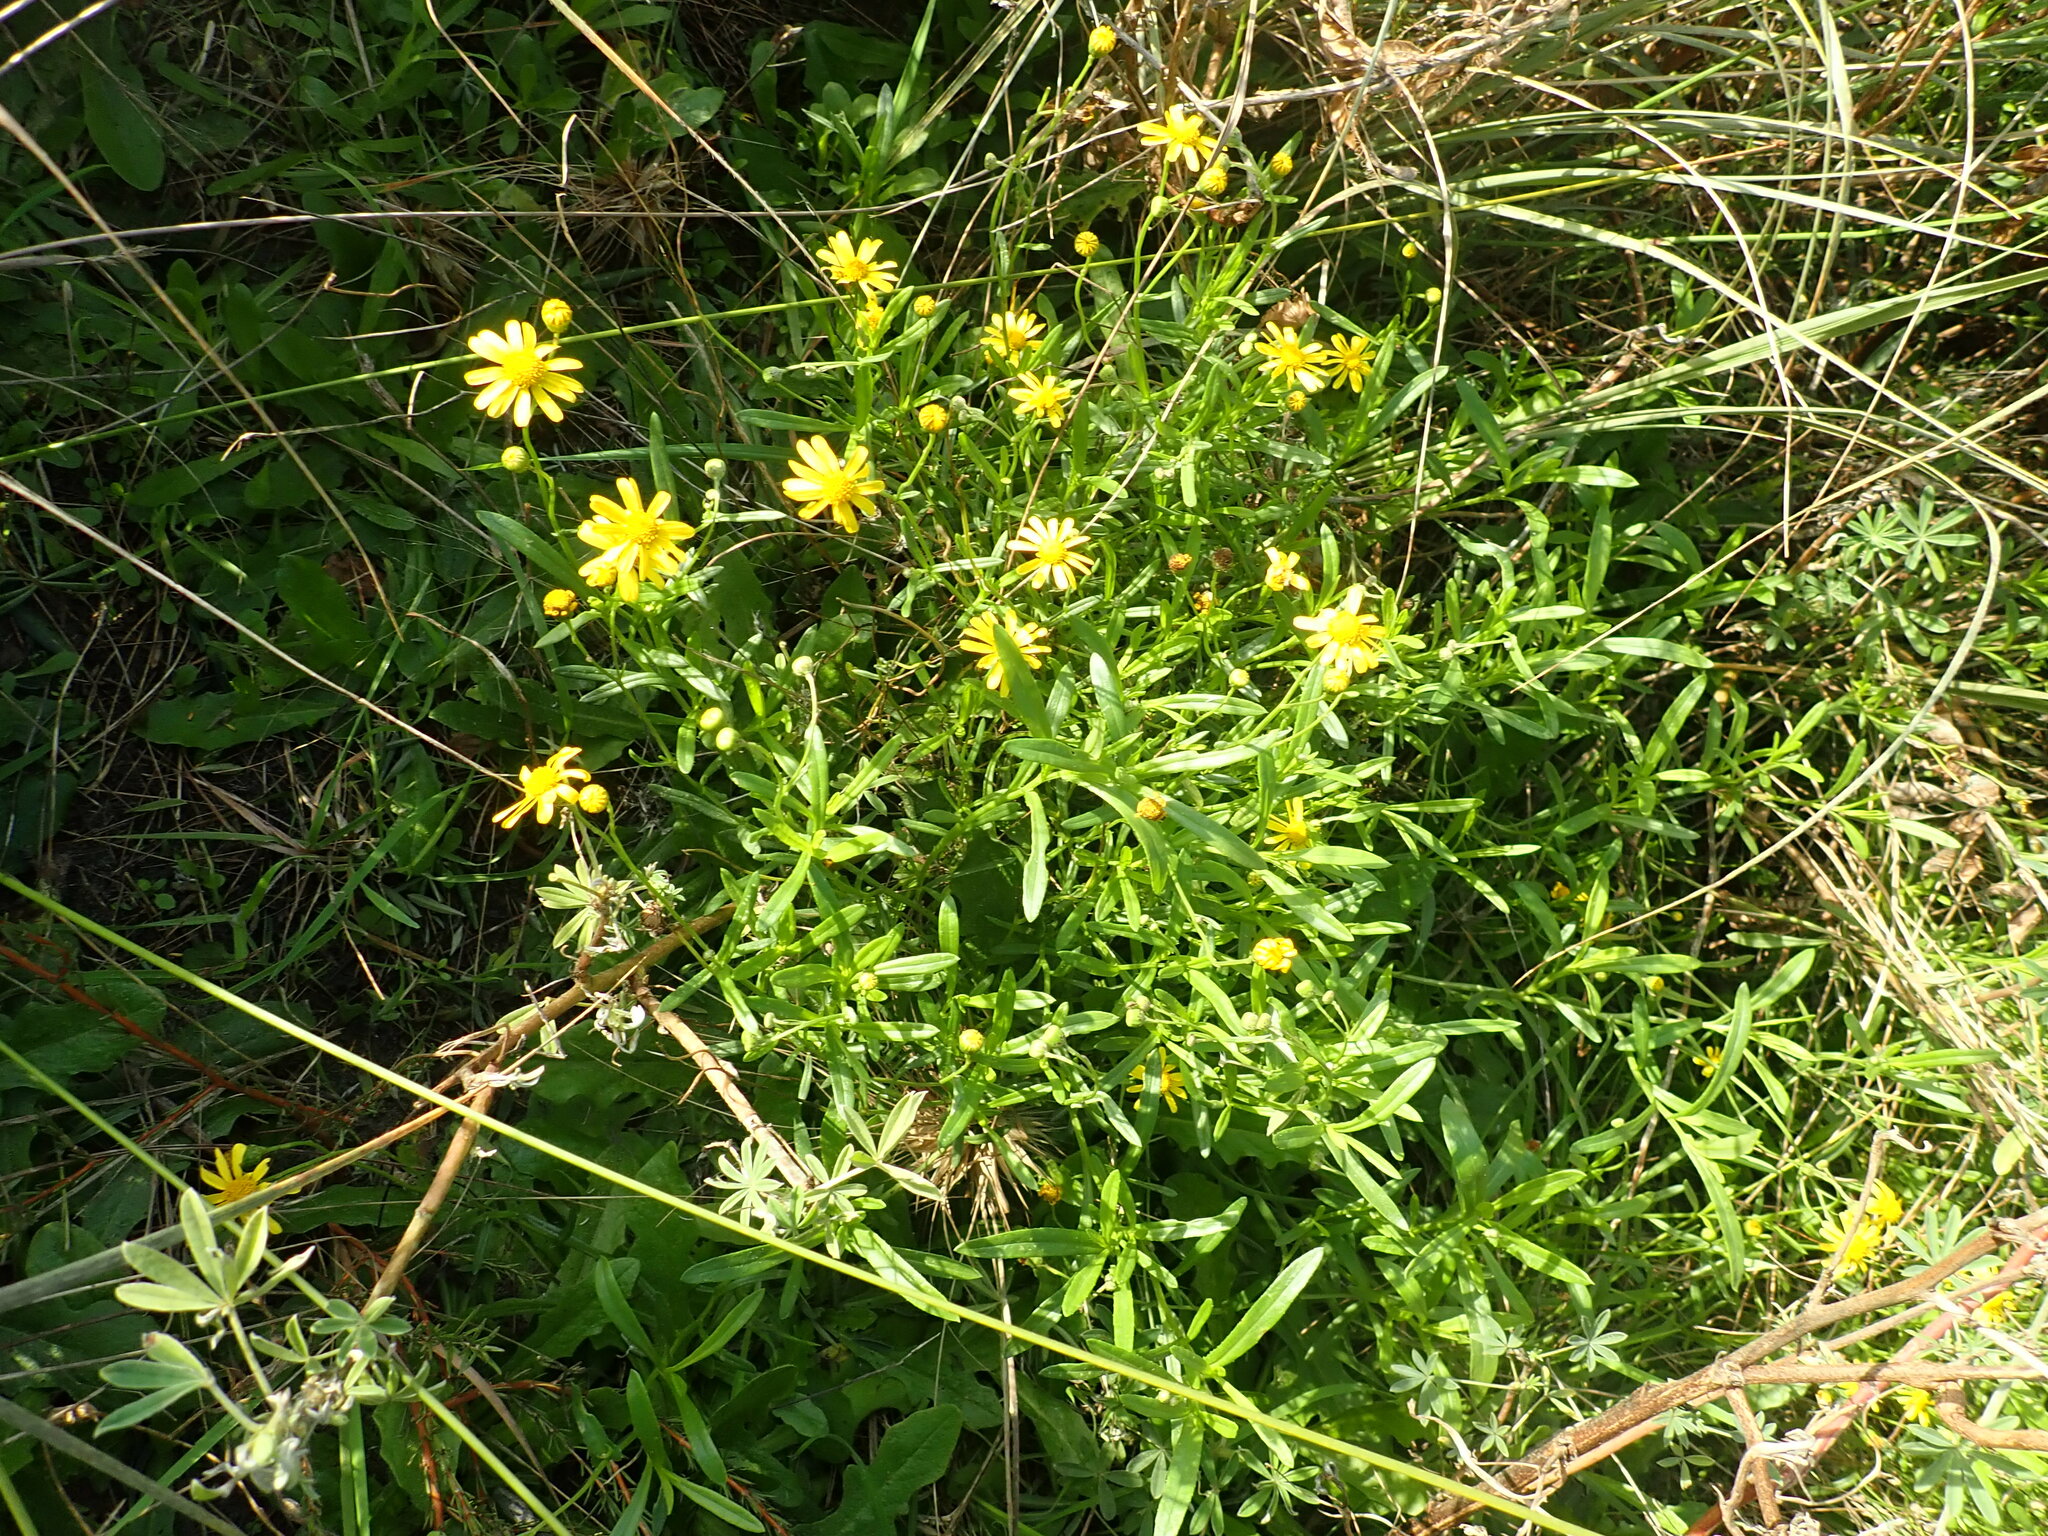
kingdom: Plantae
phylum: Tracheophyta
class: Magnoliopsida
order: Asterales
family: Asteraceae
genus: Senecio
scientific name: Senecio skirrhodon
